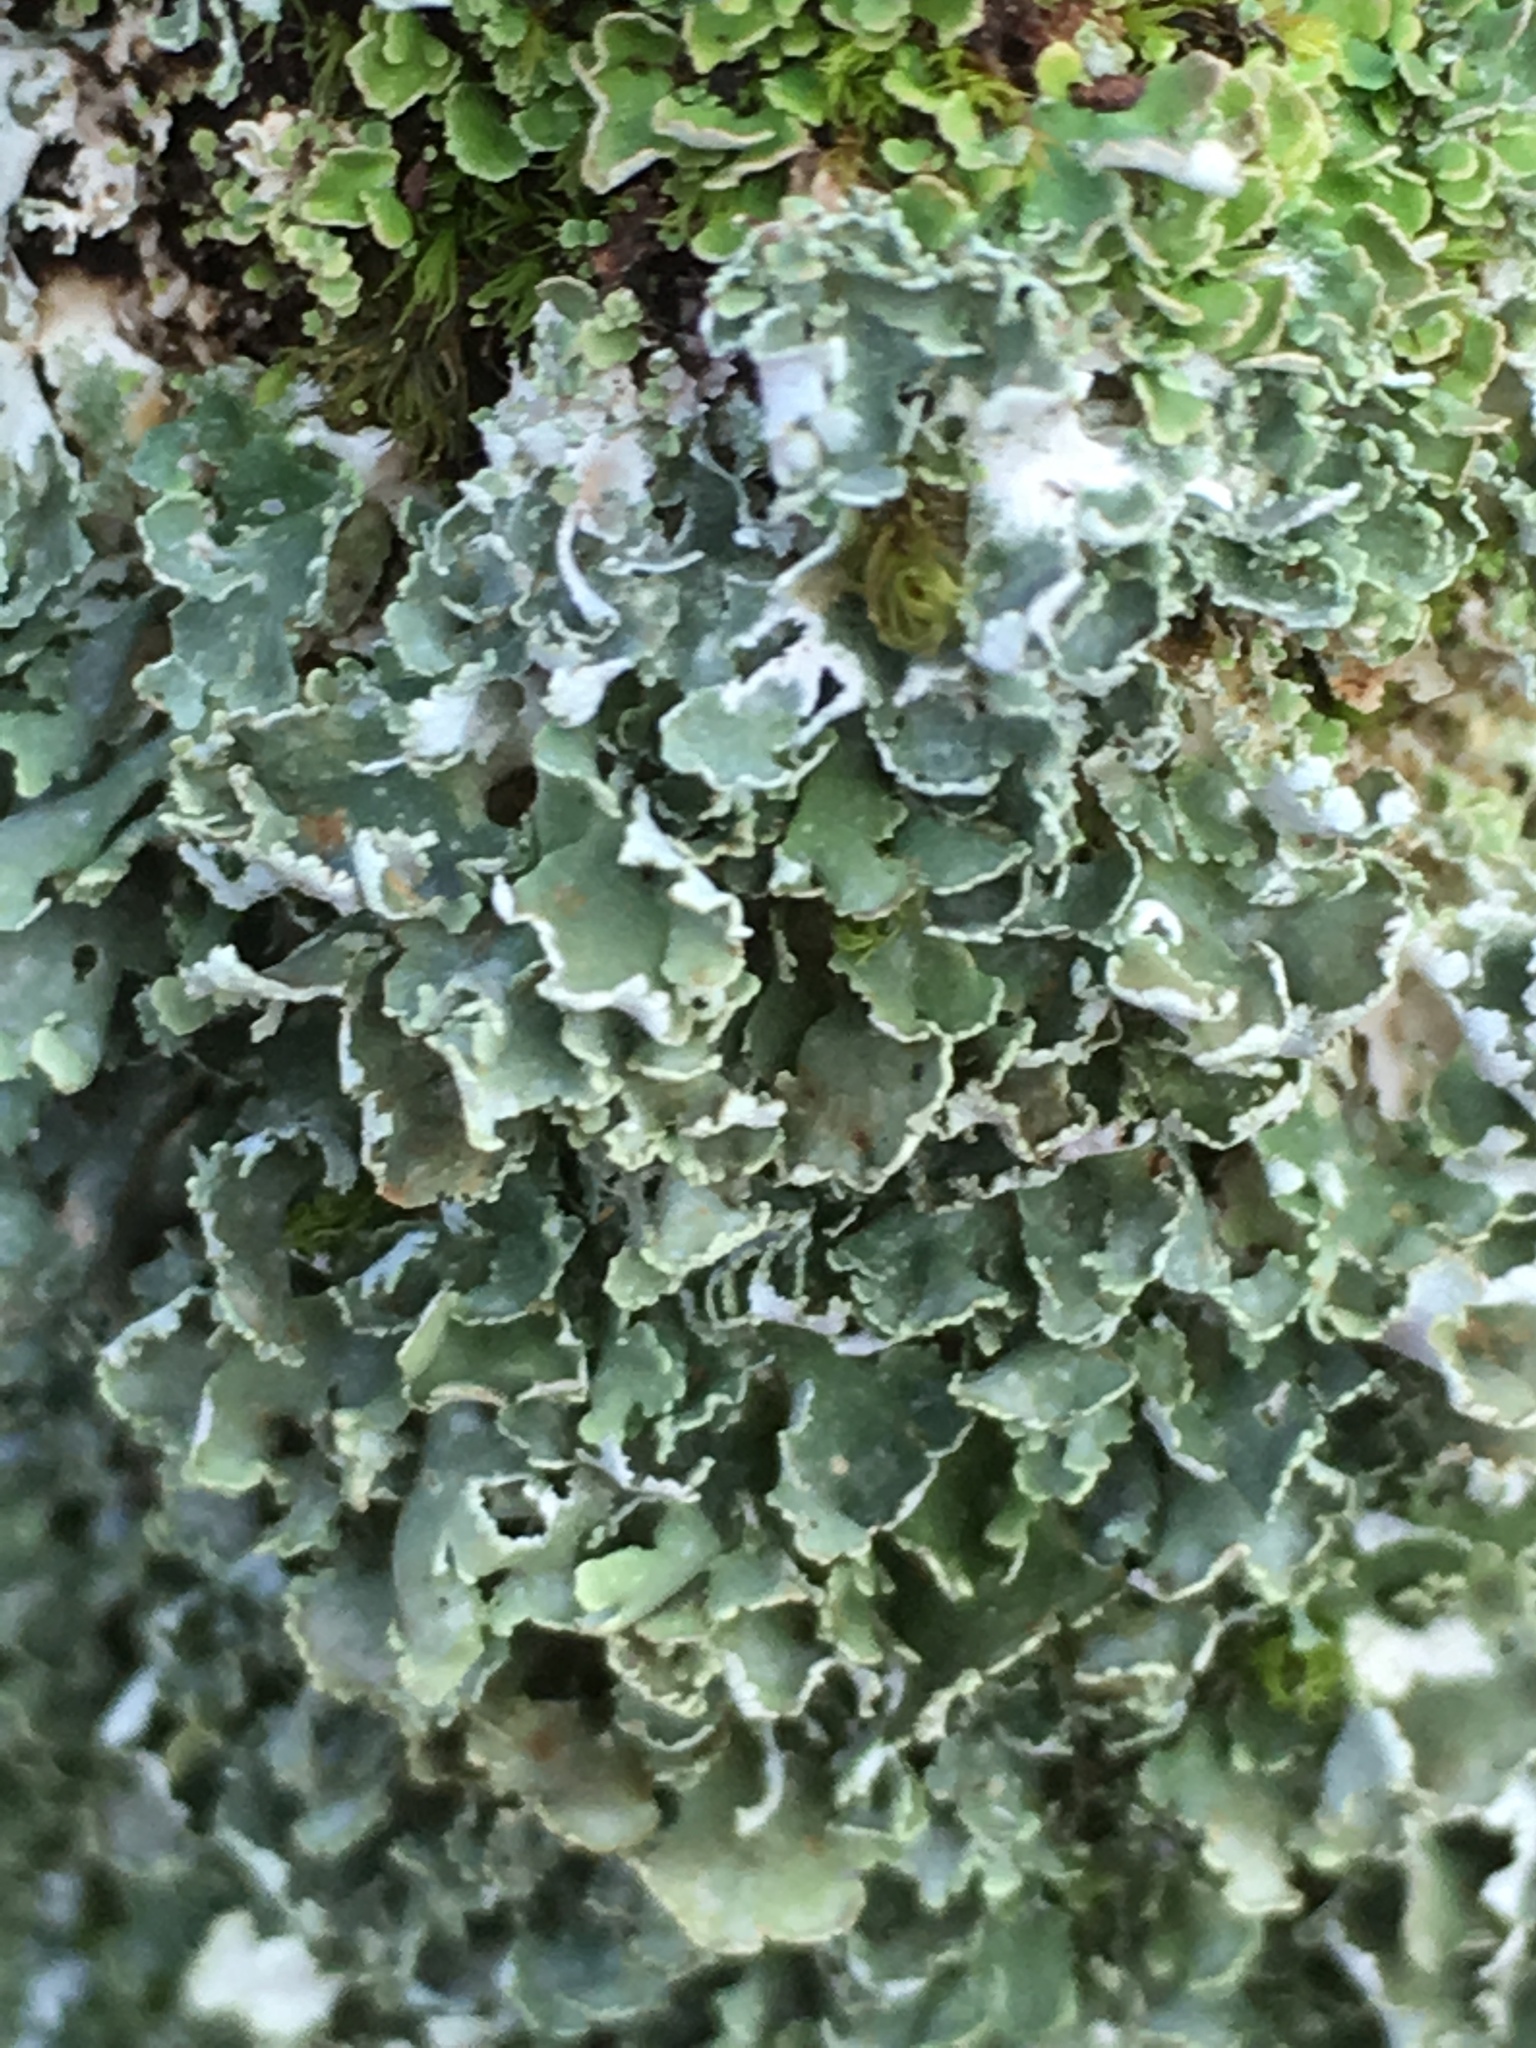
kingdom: Fungi
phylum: Ascomycota
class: Lecanoromycetes
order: Lecanorales
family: Cladoniaceae
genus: Cladonia
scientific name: Cladonia digitata
